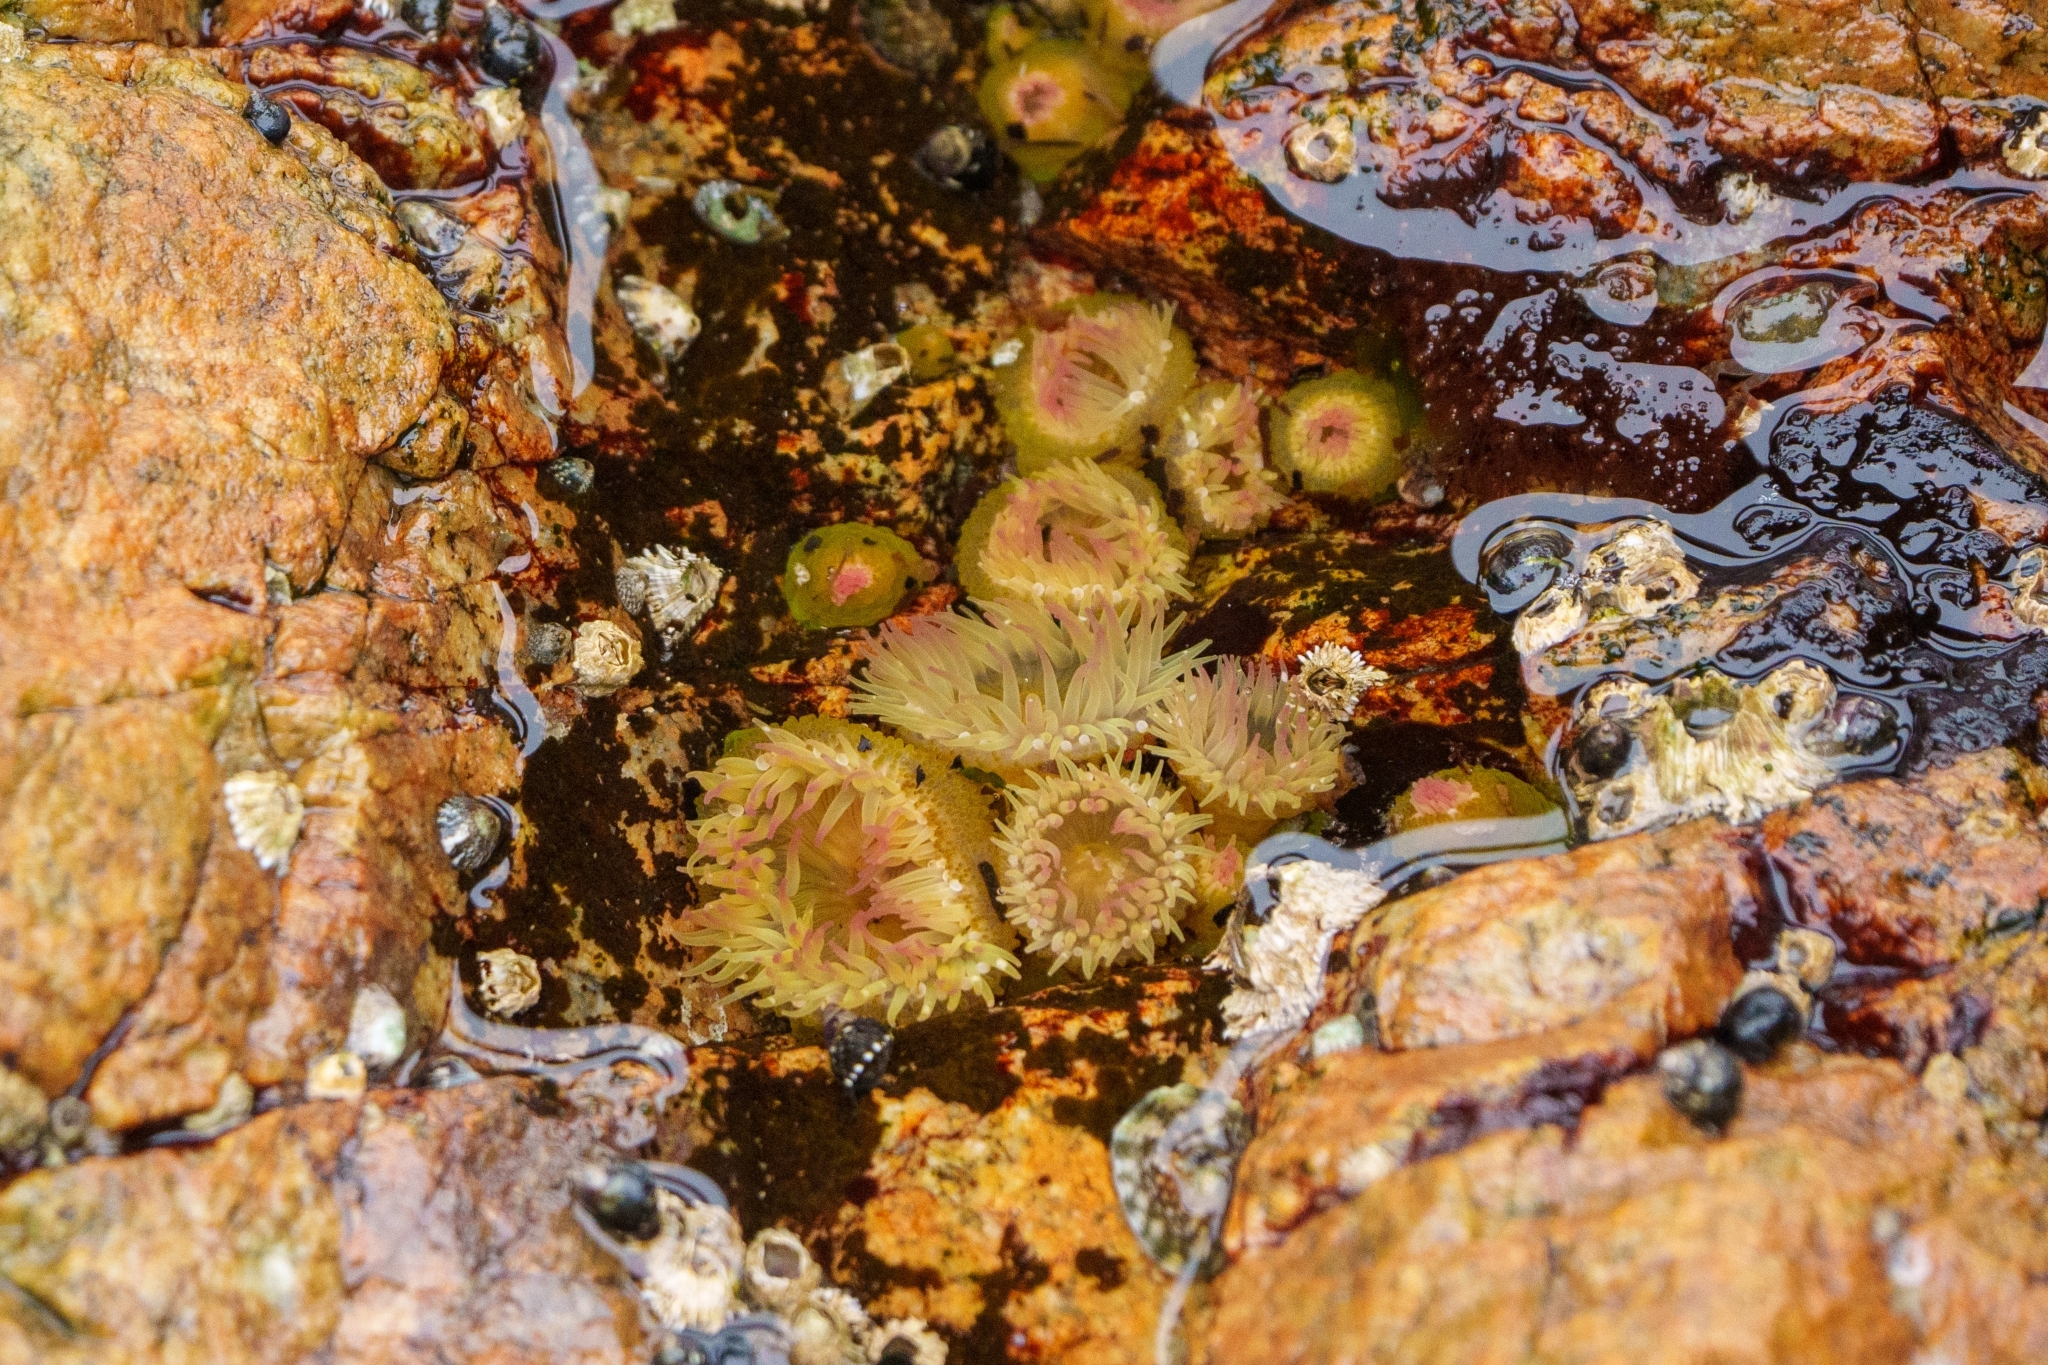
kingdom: Animalia
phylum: Cnidaria
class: Anthozoa
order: Actiniaria
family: Actiniidae
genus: Anthopleura
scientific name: Anthopleura elegantissima
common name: Clonal anemone
